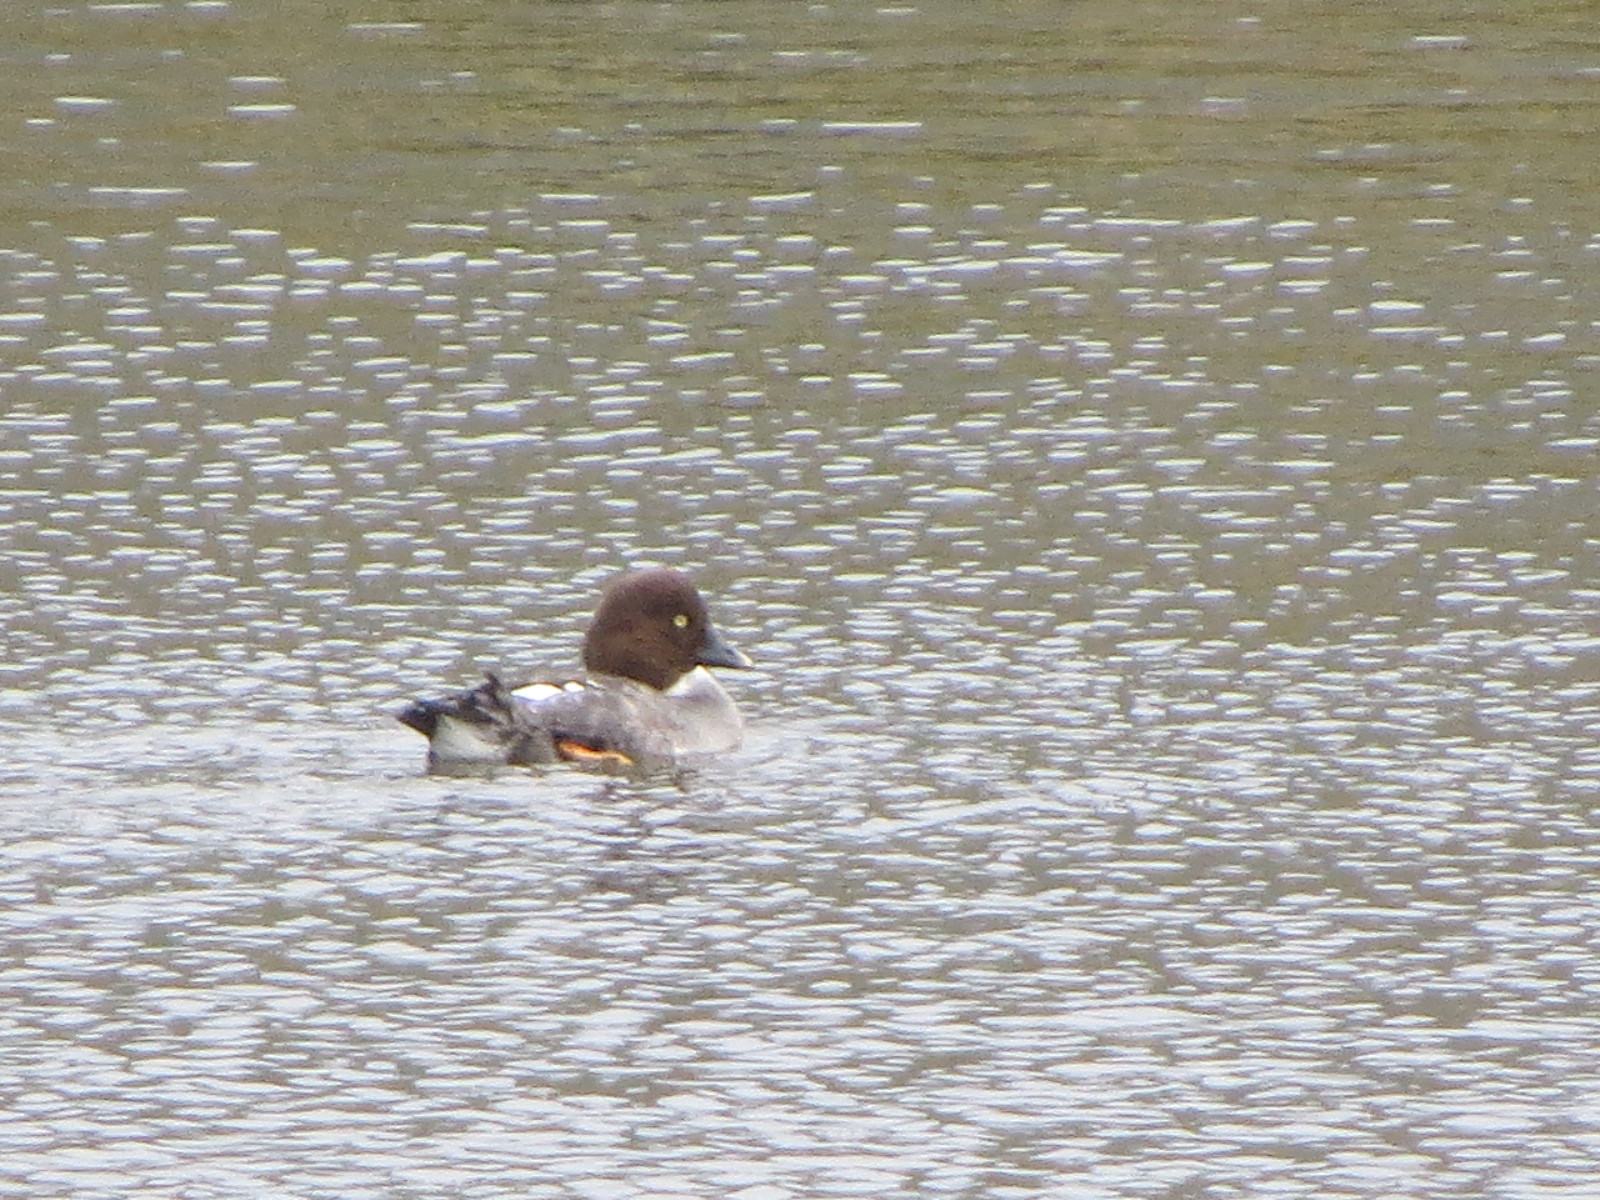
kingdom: Animalia
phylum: Chordata
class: Aves
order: Anseriformes
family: Anatidae
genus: Bucephala
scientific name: Bucephala clangula
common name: Common goldeneye
